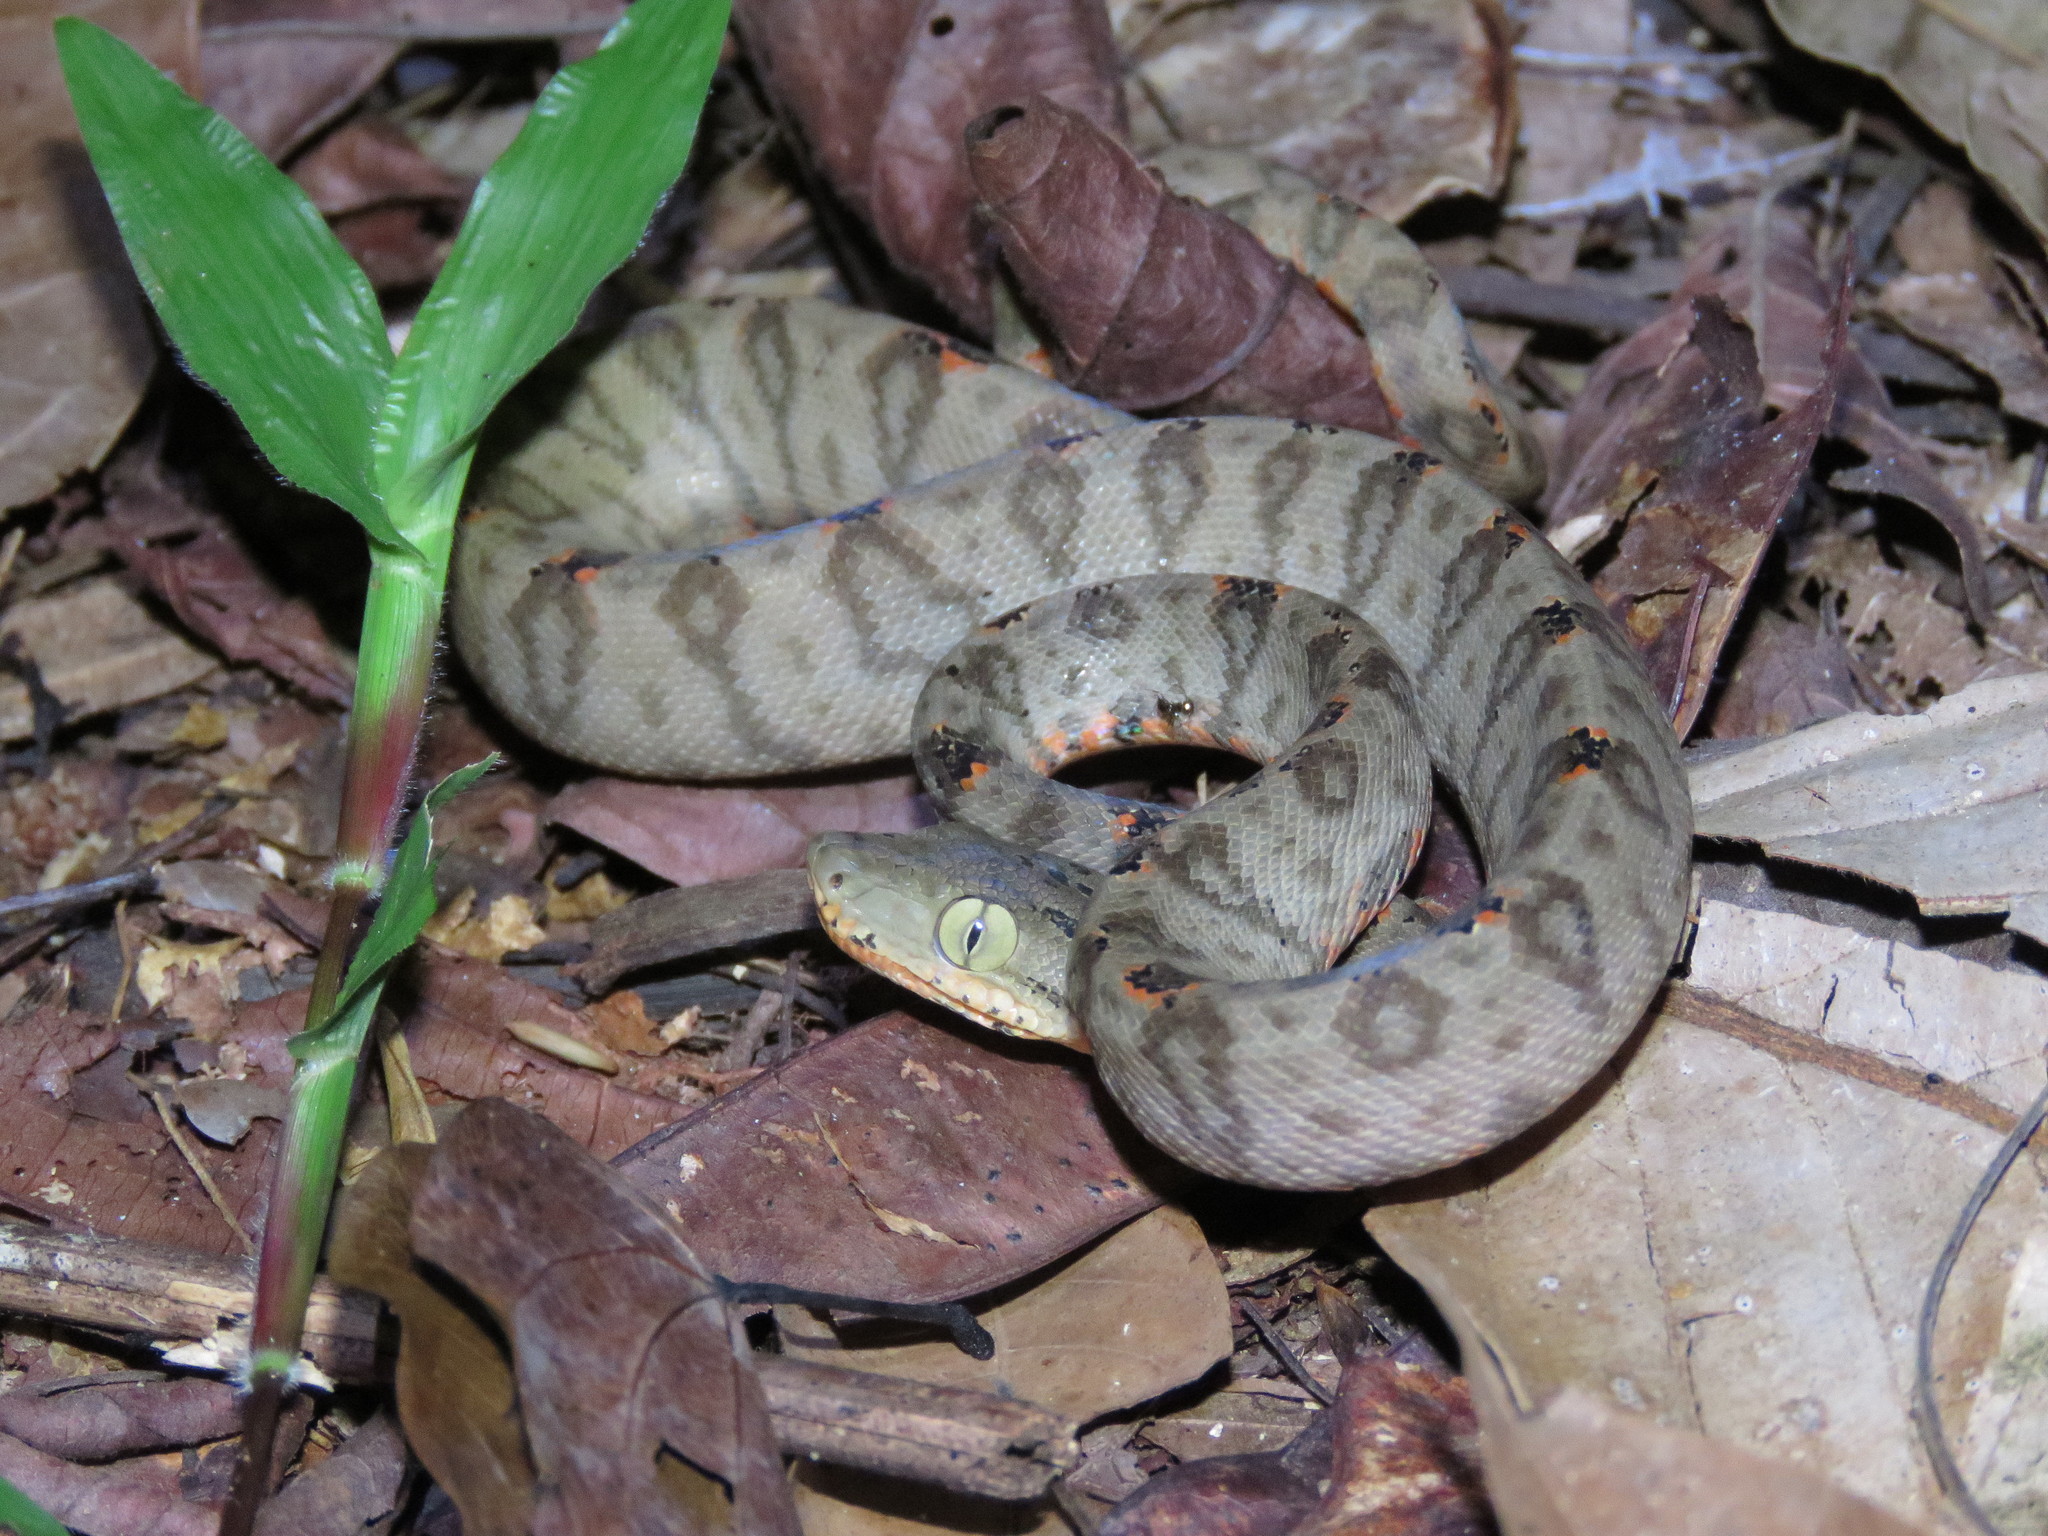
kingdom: Animalia
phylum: Chordata
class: Squamata
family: Boidae
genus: Corallus
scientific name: Corallus hortulana
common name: Garden tree boa
